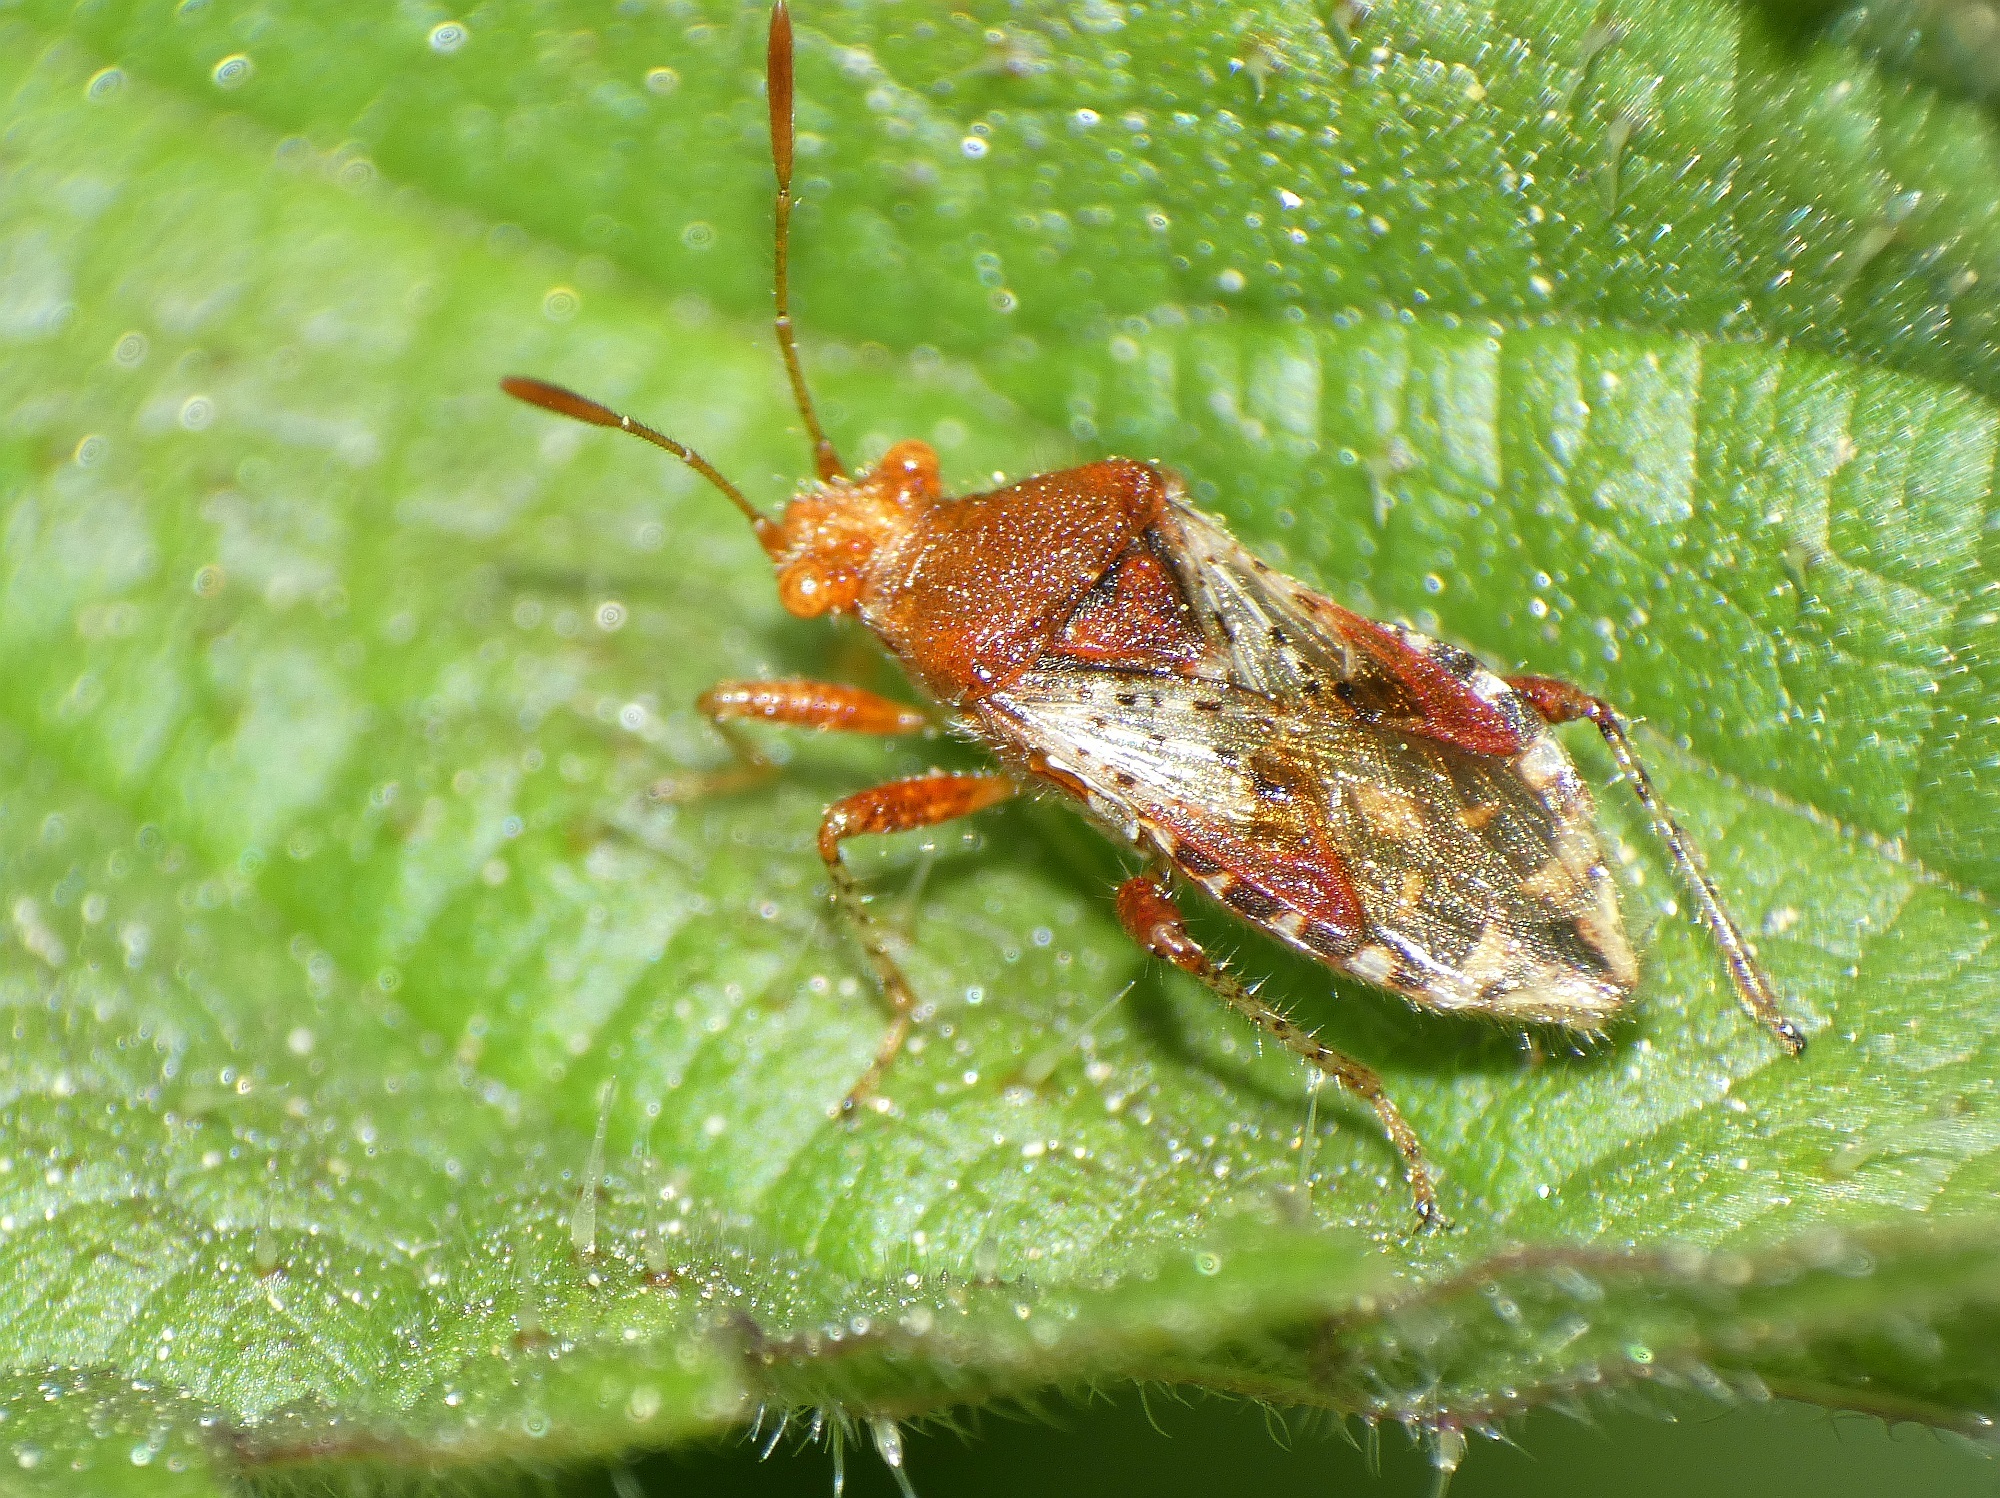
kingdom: Animalia
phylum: Arthropoda
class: Insecta
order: Hemiptera
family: Rhopalidae
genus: Rhopalus
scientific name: Rhopalus subrufus
